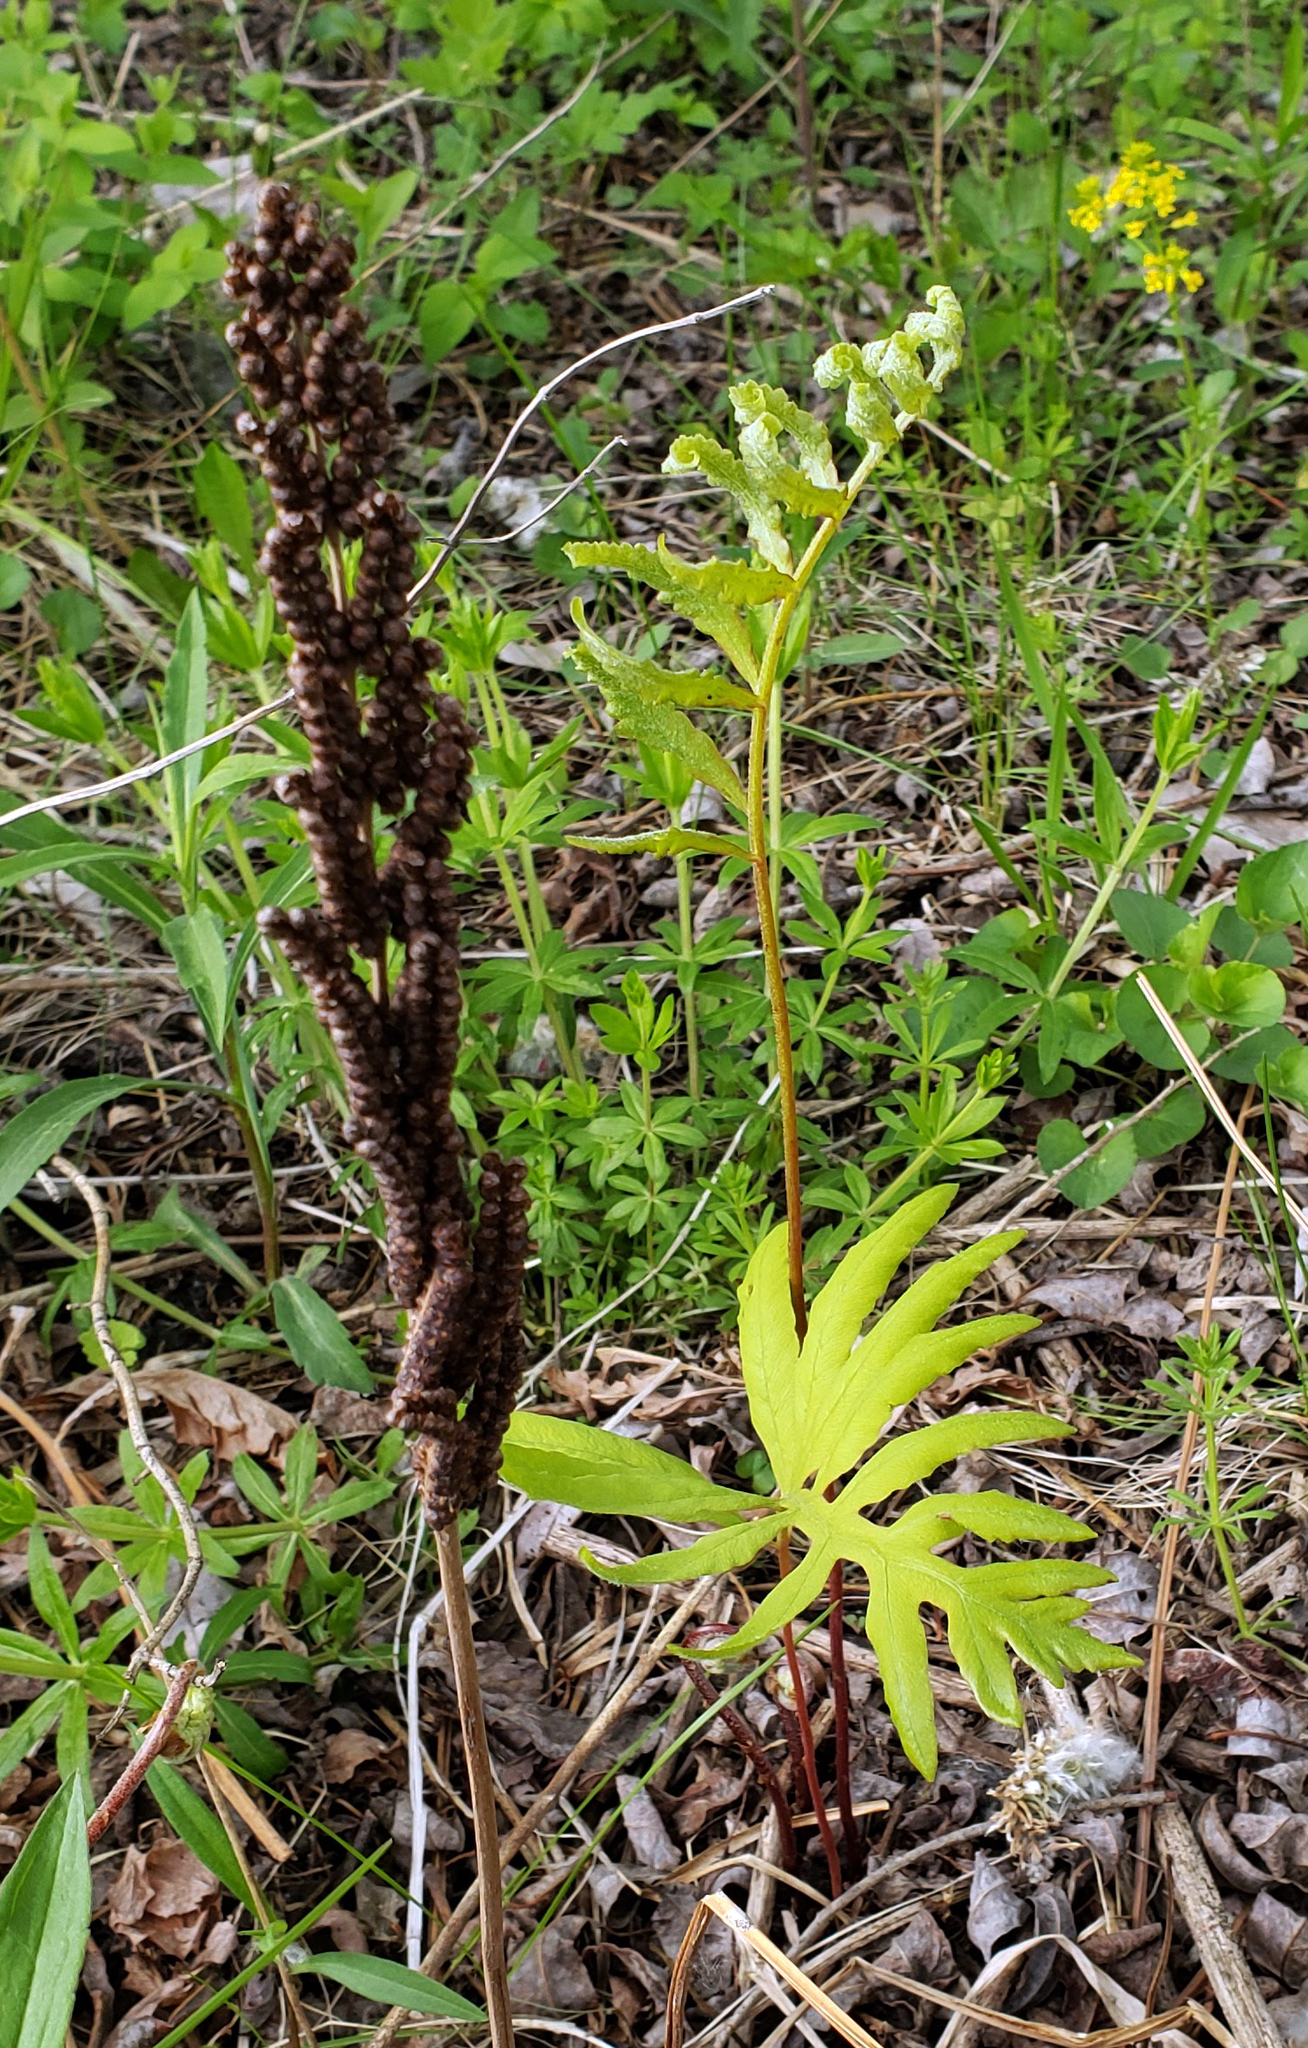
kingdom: Plantae
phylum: Tracheophyta
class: Polypodiopsida
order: Polypodiales
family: Onocleaceae
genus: Onoclea
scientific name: Onoclea sensibilis
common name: Sensitive fern
